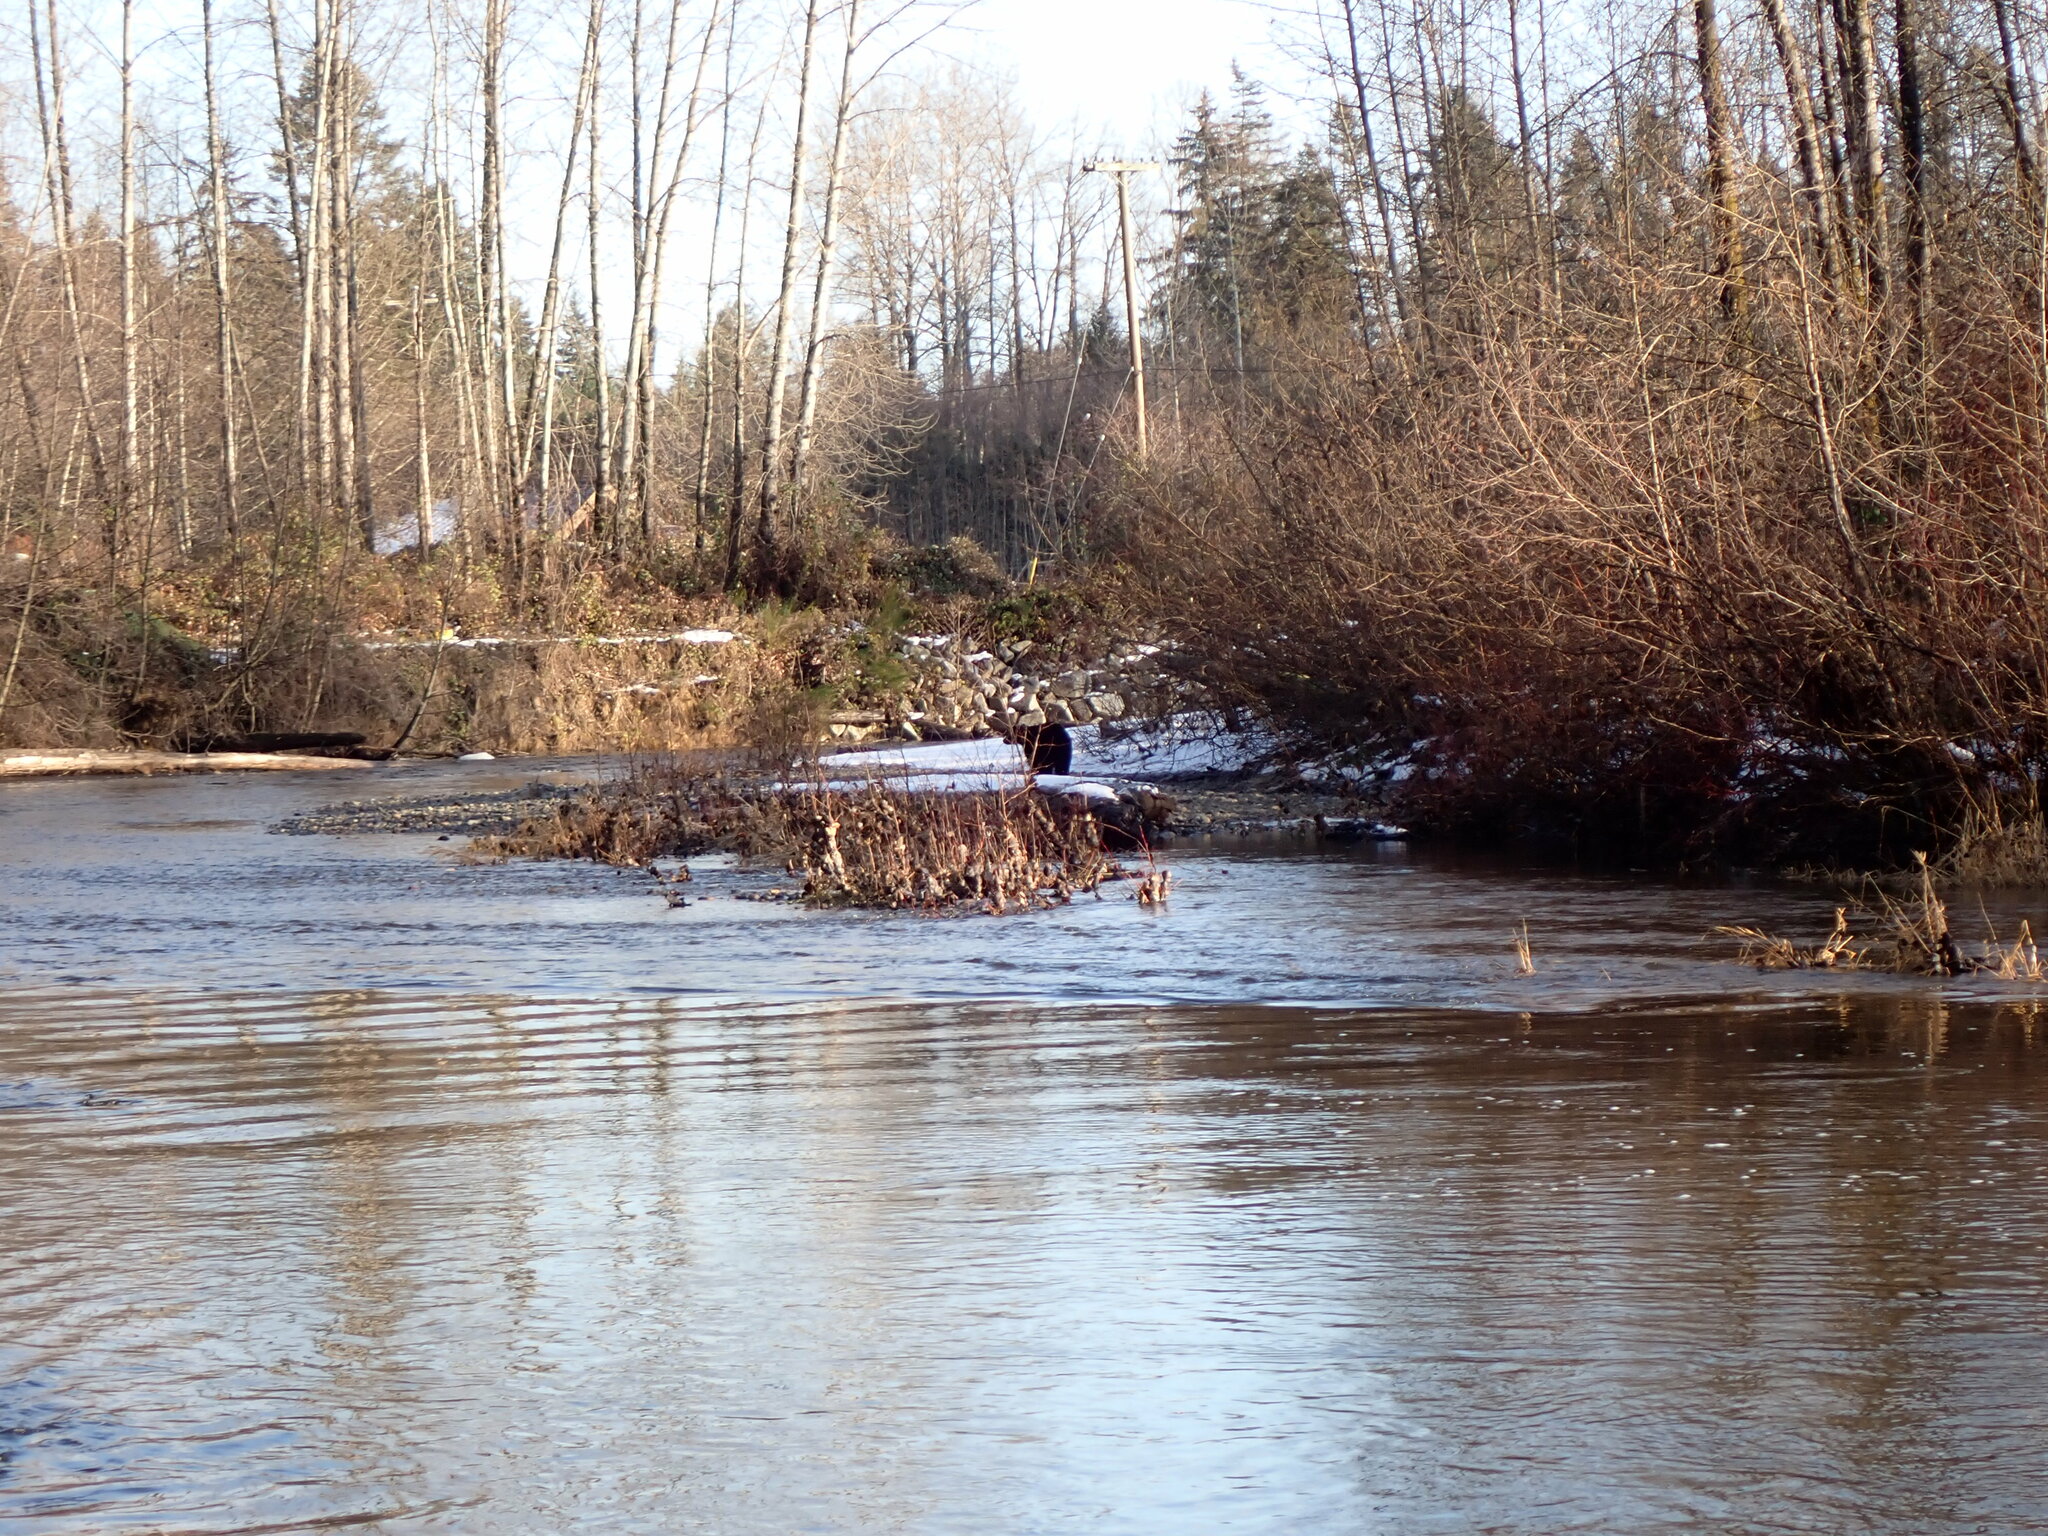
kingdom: Animalia
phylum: Chordata
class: Mammalia
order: Carnivora
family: Ursidae
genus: Ursus
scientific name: Ursus americanus
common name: American black bear
